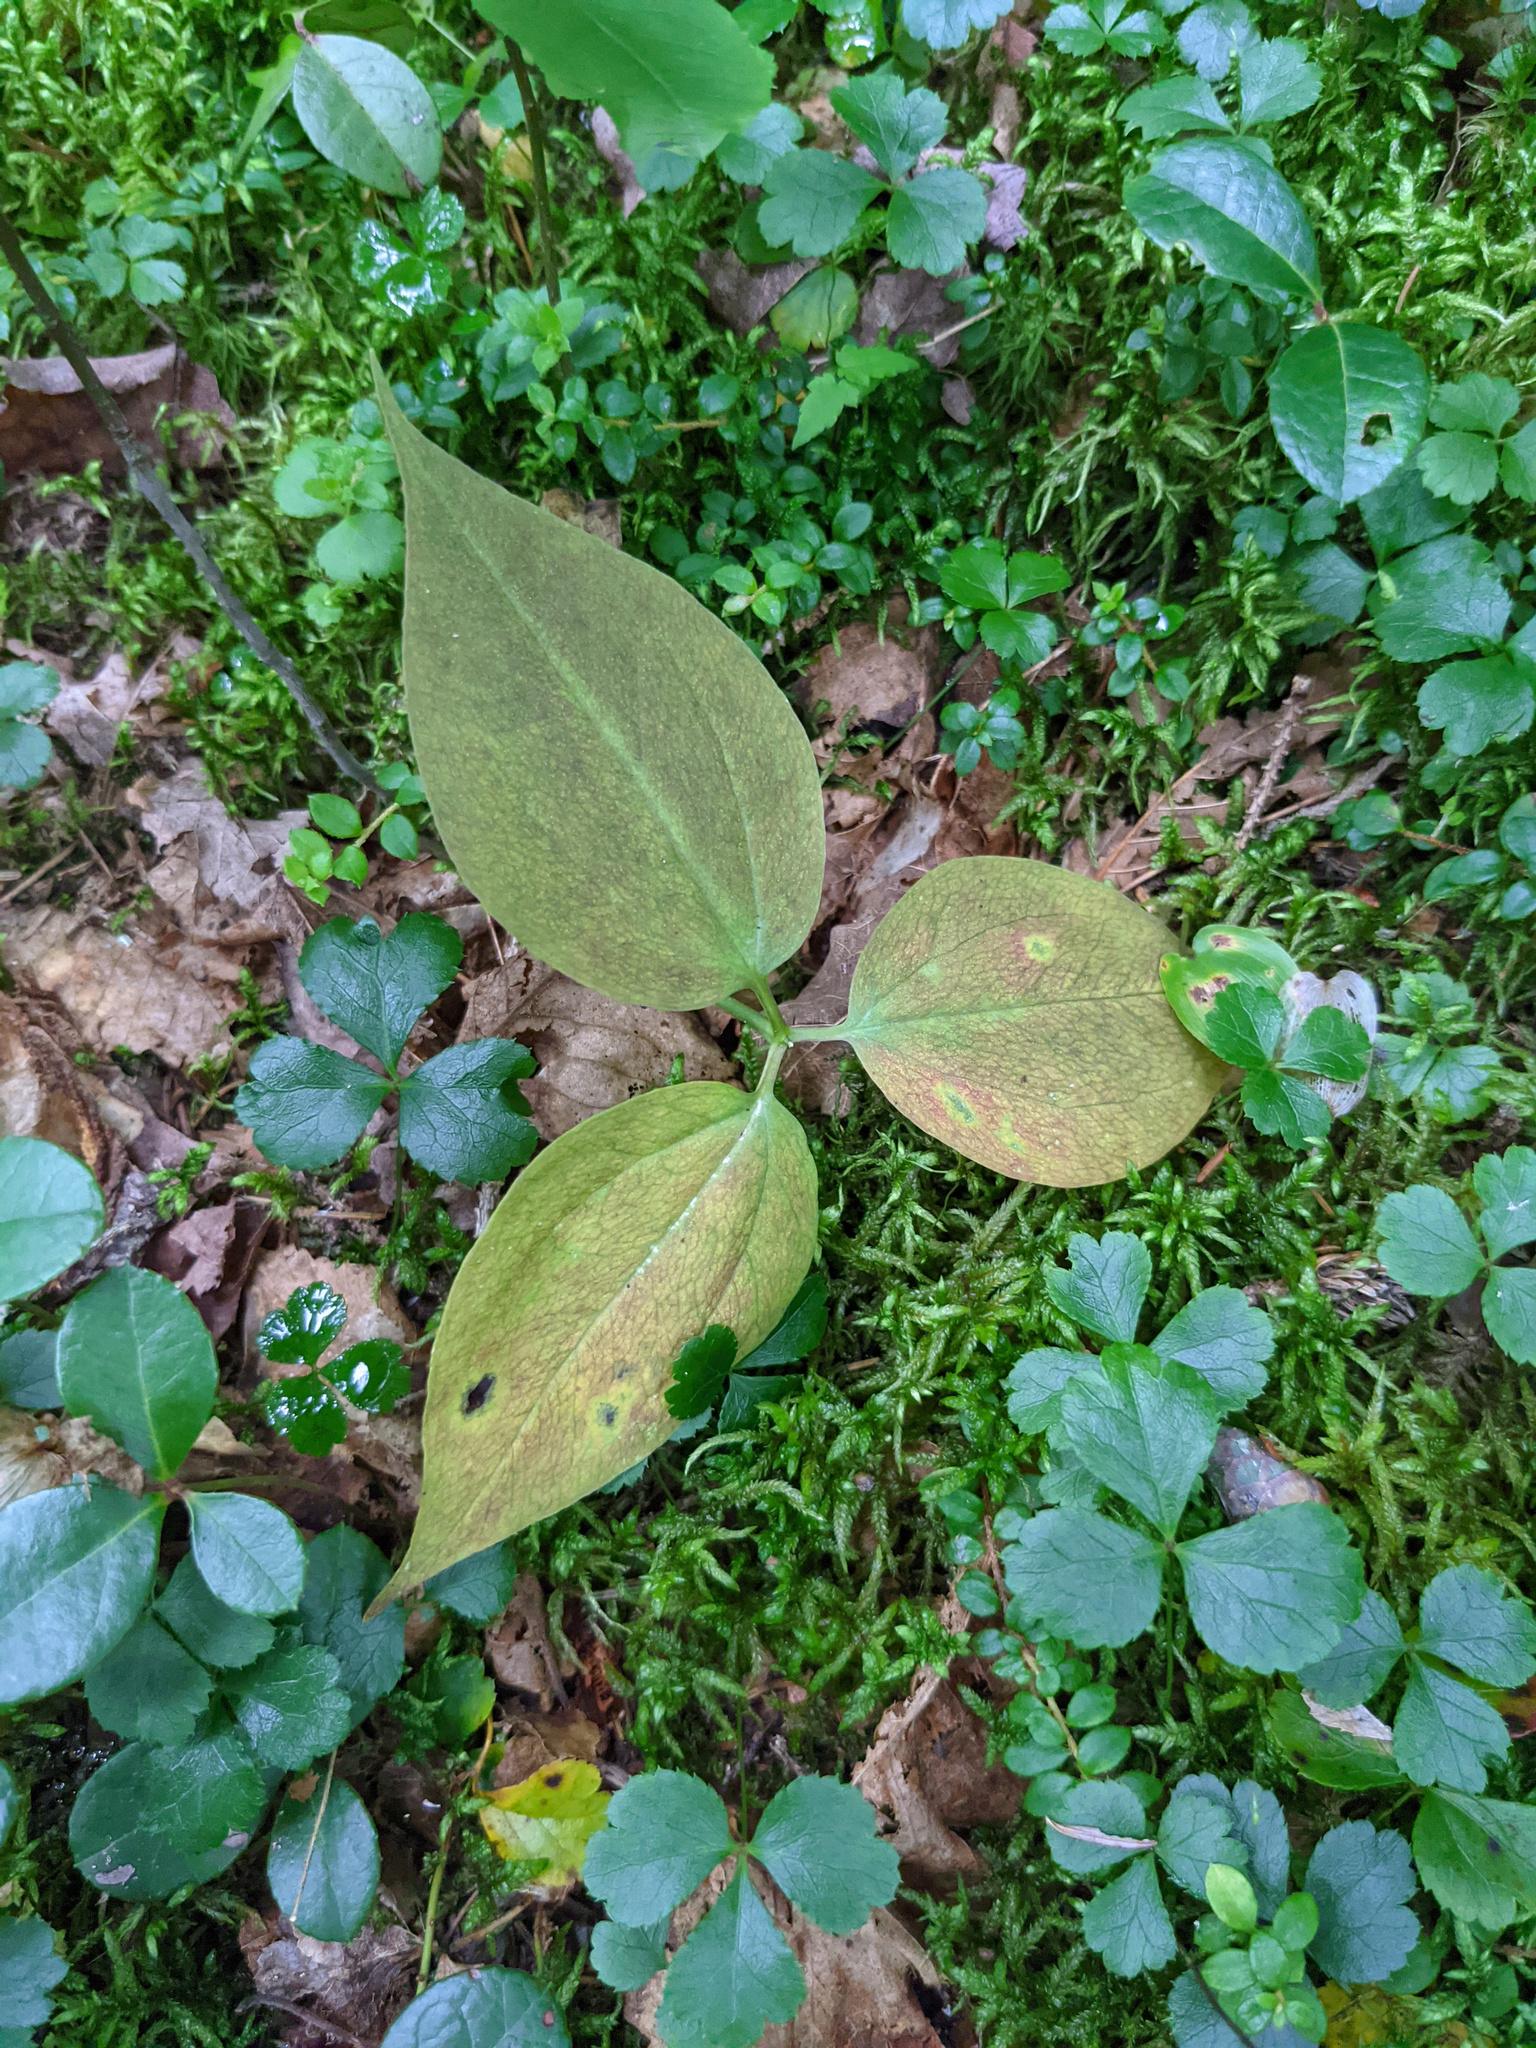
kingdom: Plantae
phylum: Tracheophyta
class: Liliopsida
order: Liliales
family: Melanthiaceae
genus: Trillium
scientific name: Trillium undulatum
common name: Paint trillium
